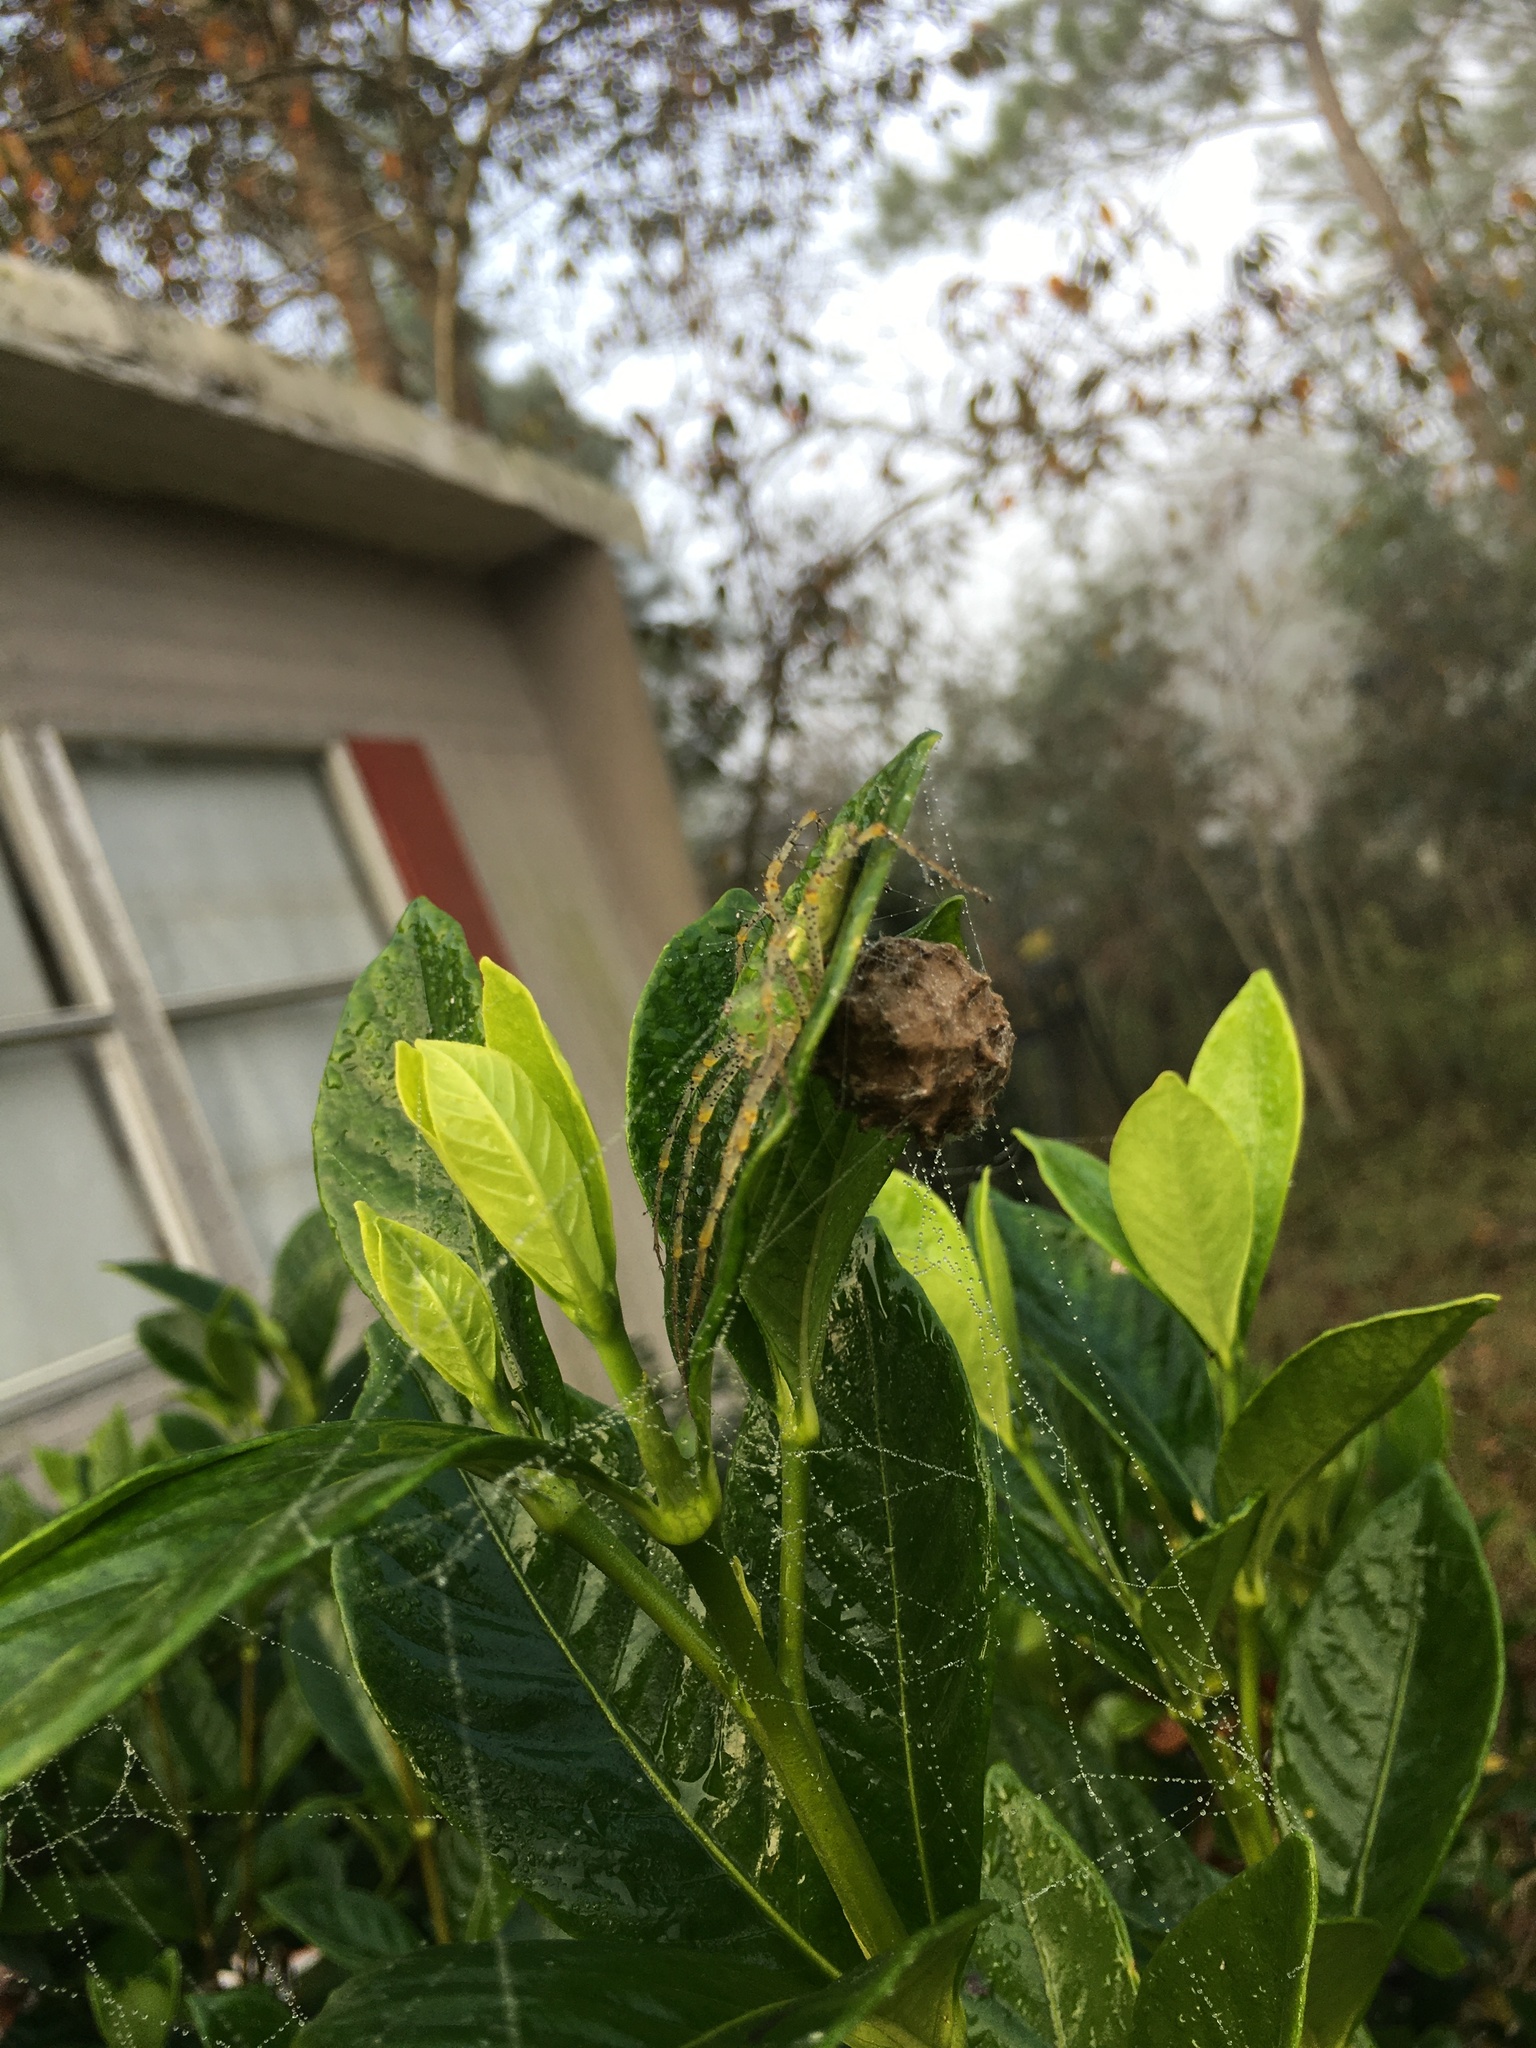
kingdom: Animalia
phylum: Arthropoda
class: Arachnida
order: Araneae
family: Oxyopidae
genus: Peucetia
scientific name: Peucetia viridans
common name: Lynx spiders
